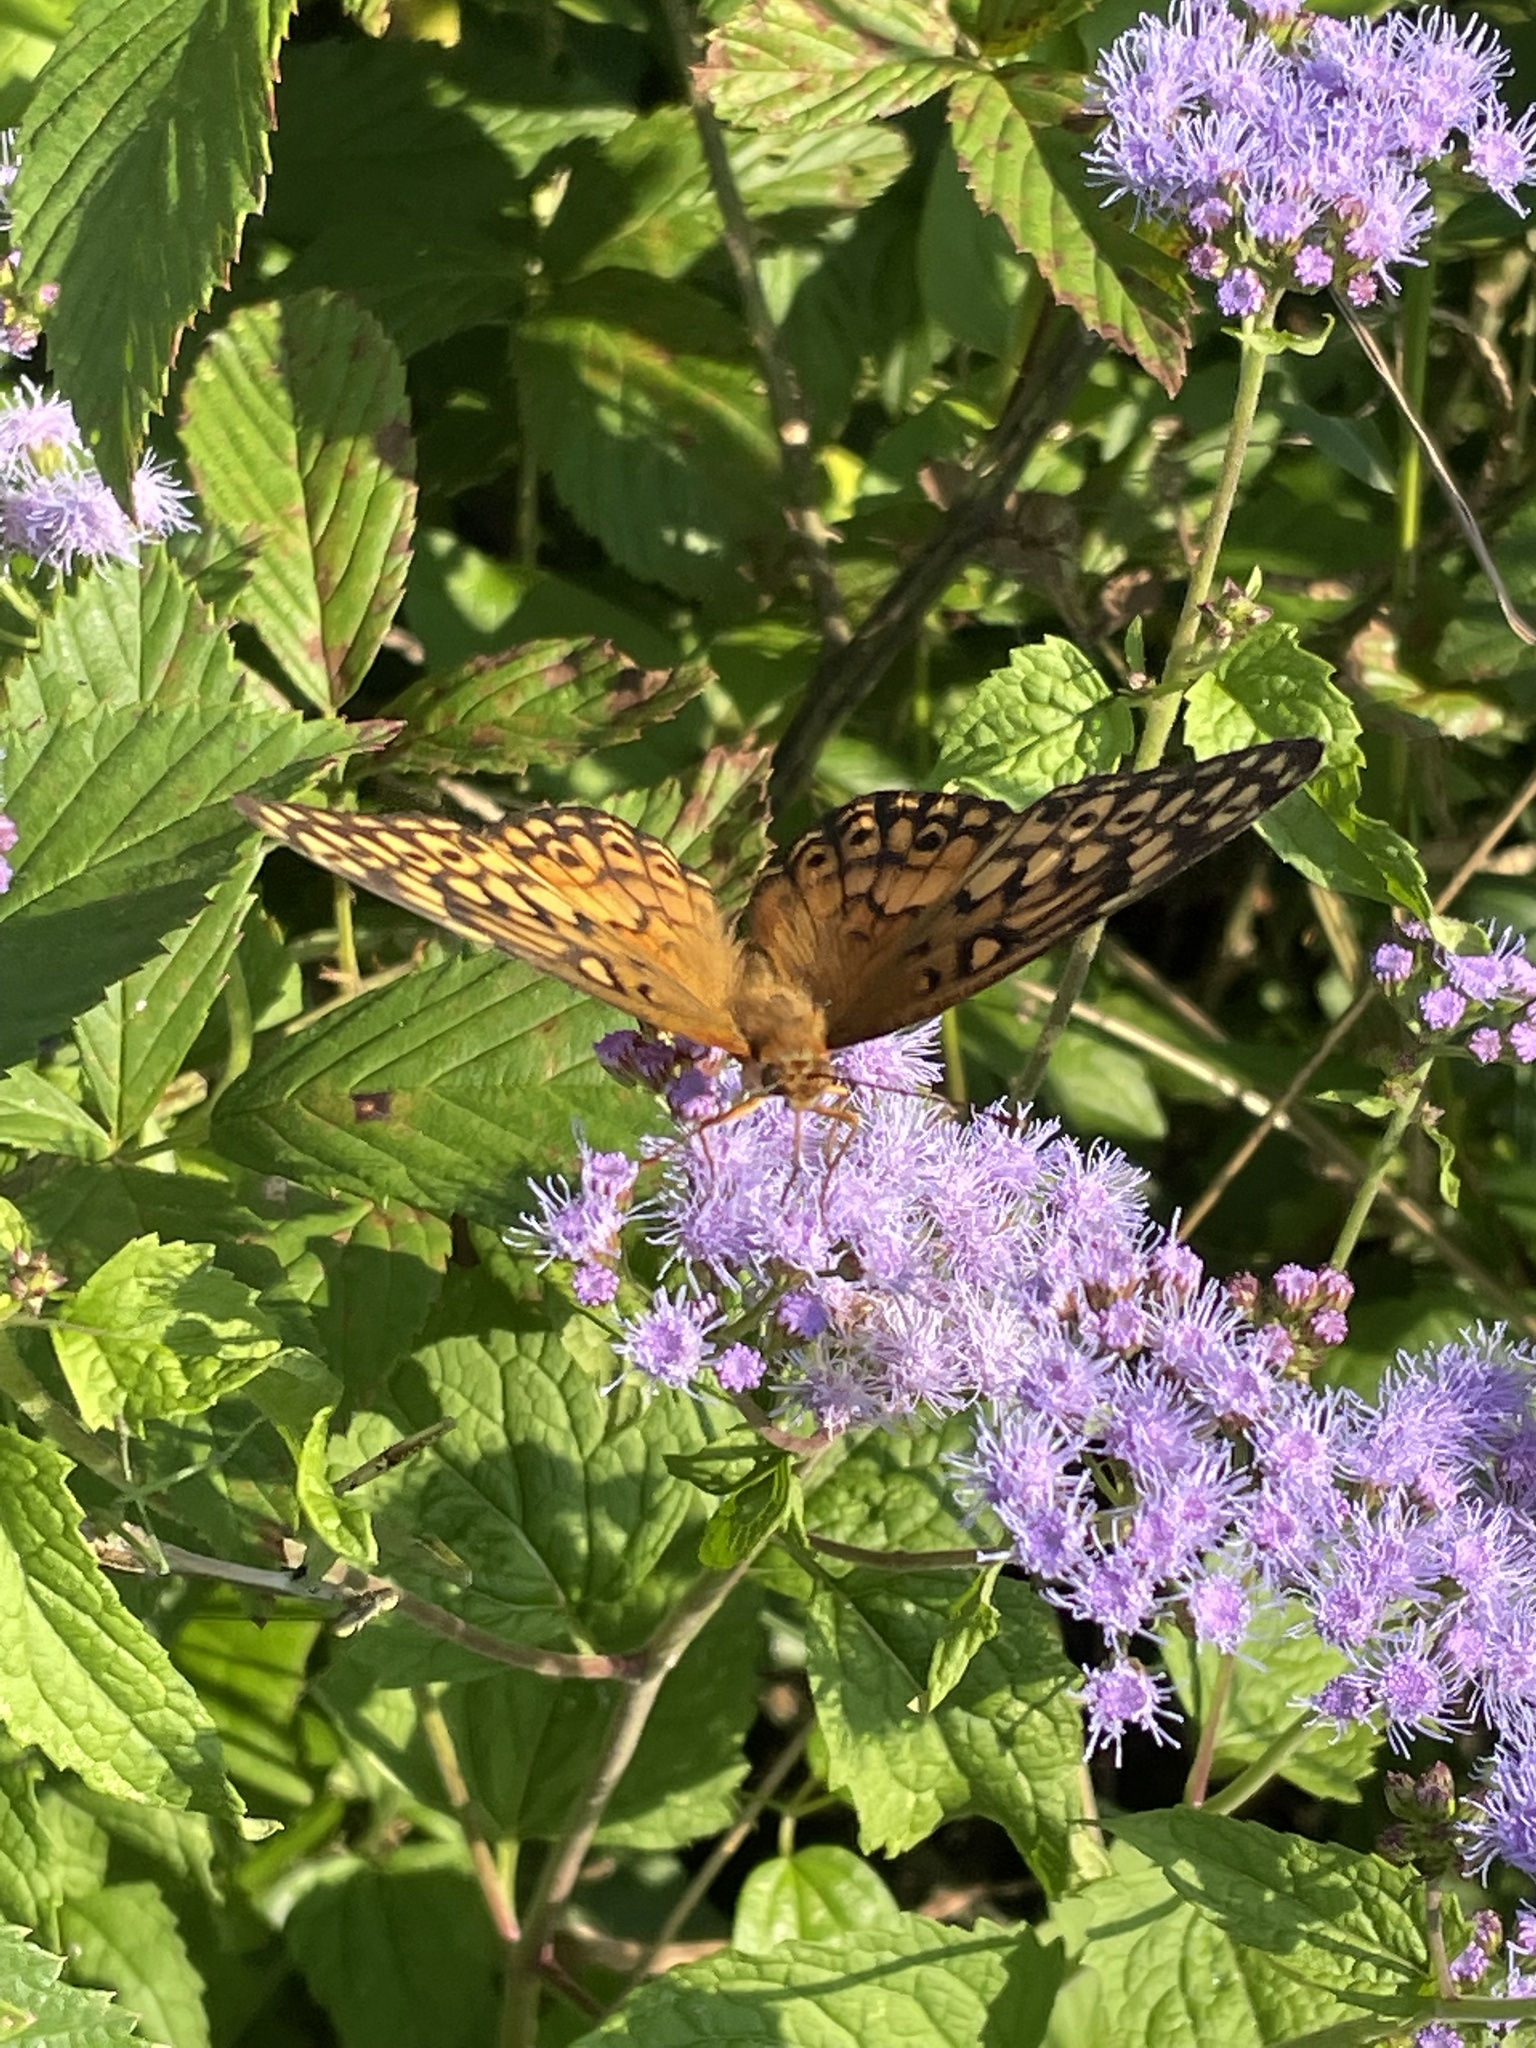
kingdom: Animalia
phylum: Arthropoda
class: Insecta
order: Lepidoptera
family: Nymphalidae
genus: Euptoieta
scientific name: Euptoieta claudia
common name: Variegated fritillary
